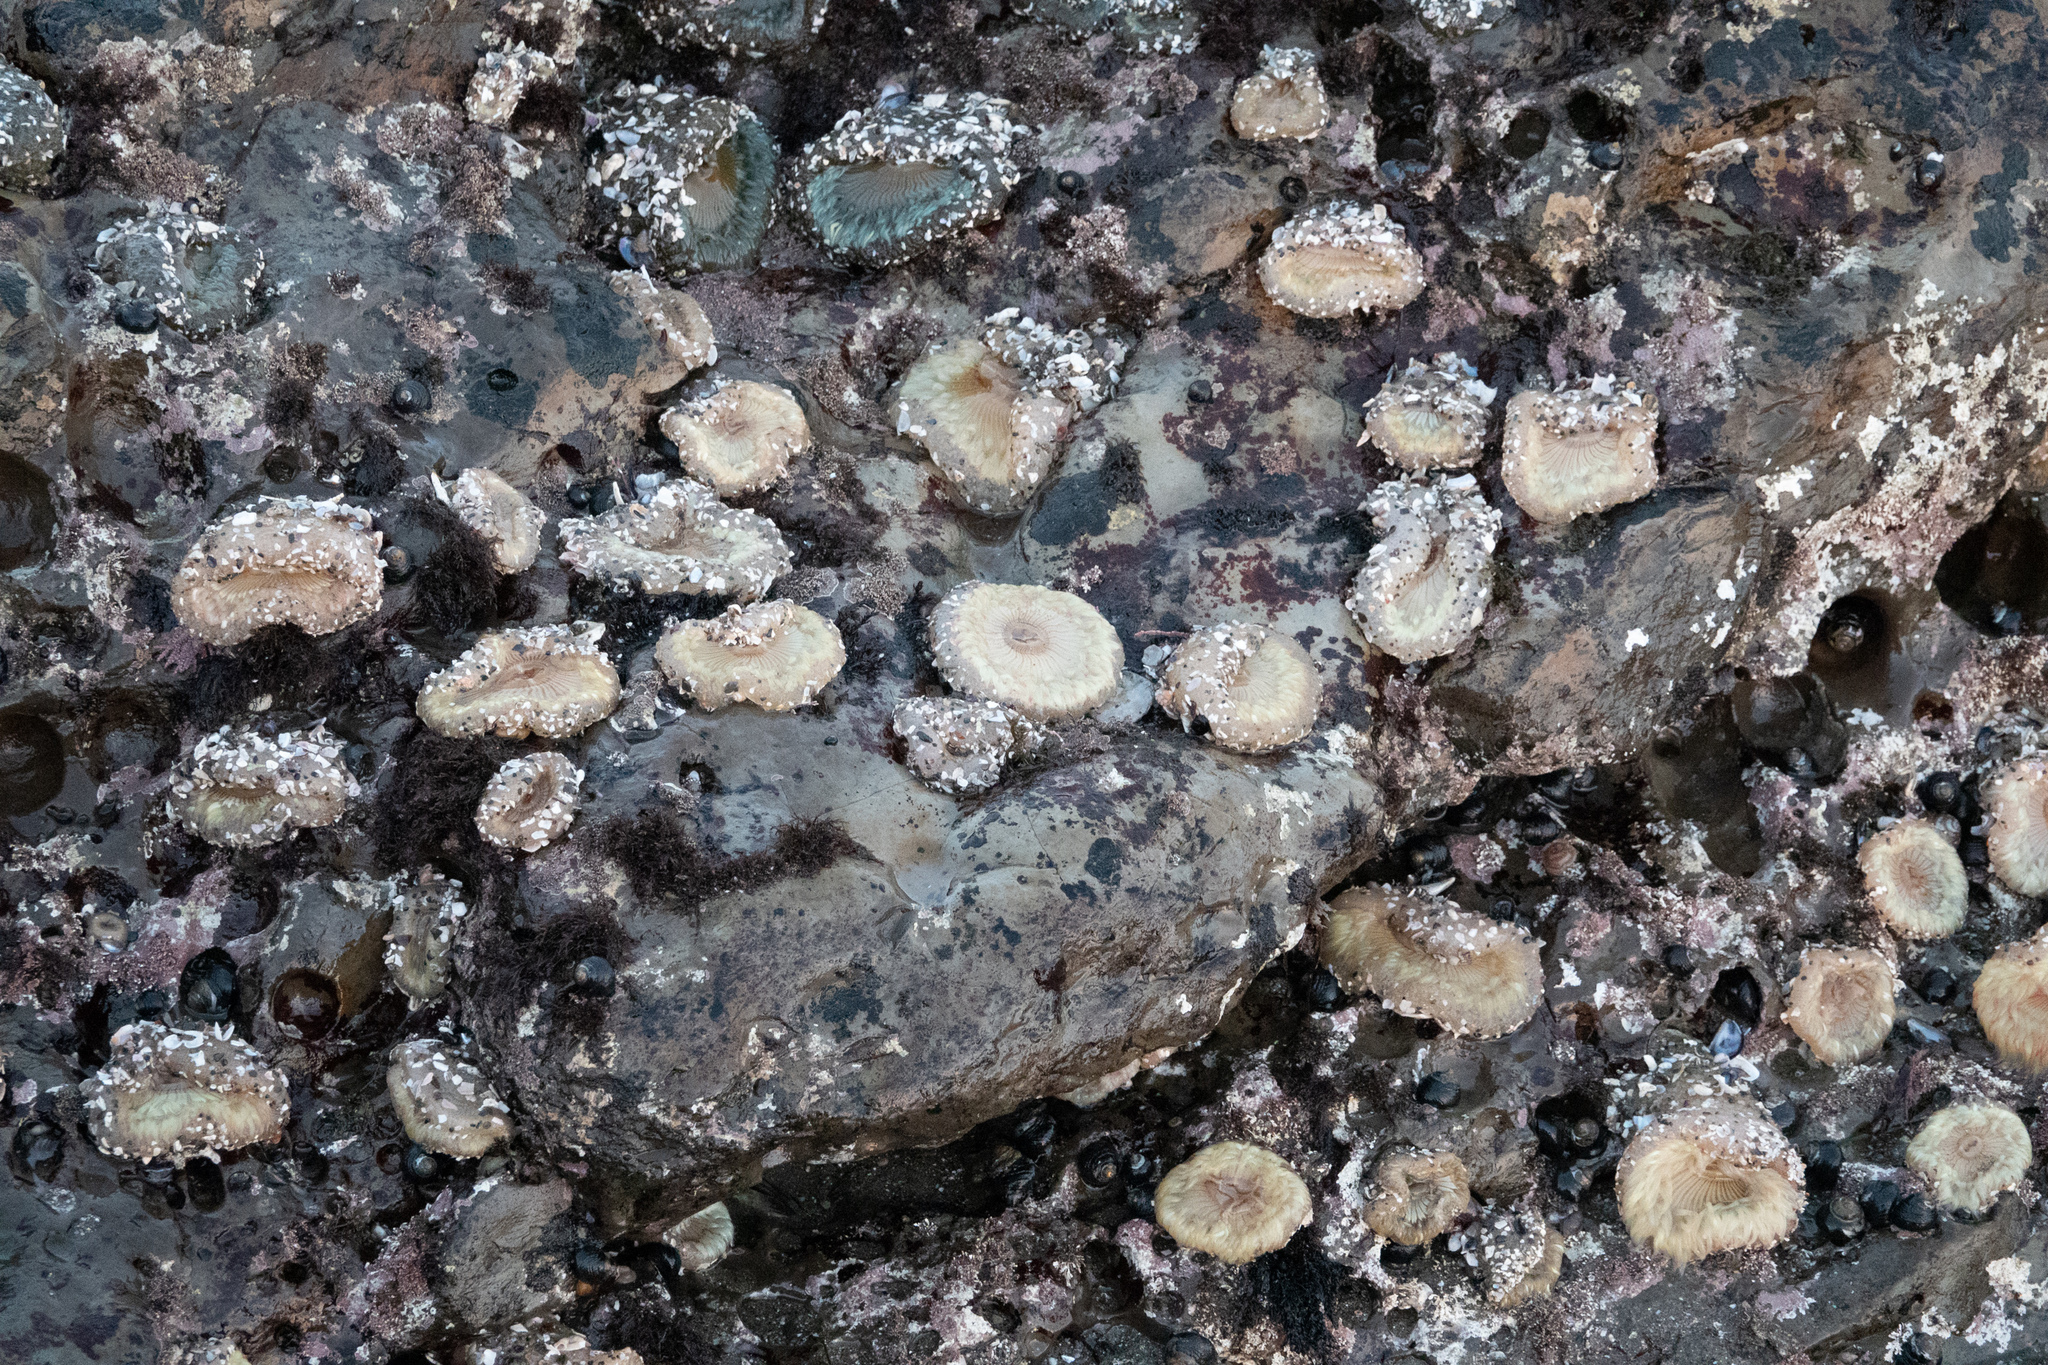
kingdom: Animalia
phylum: Cnidaria
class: Anthozoa
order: Actiniaria
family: Actiniidae
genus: Anthopleura
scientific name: Anthopleura sola
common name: Sun anemone
